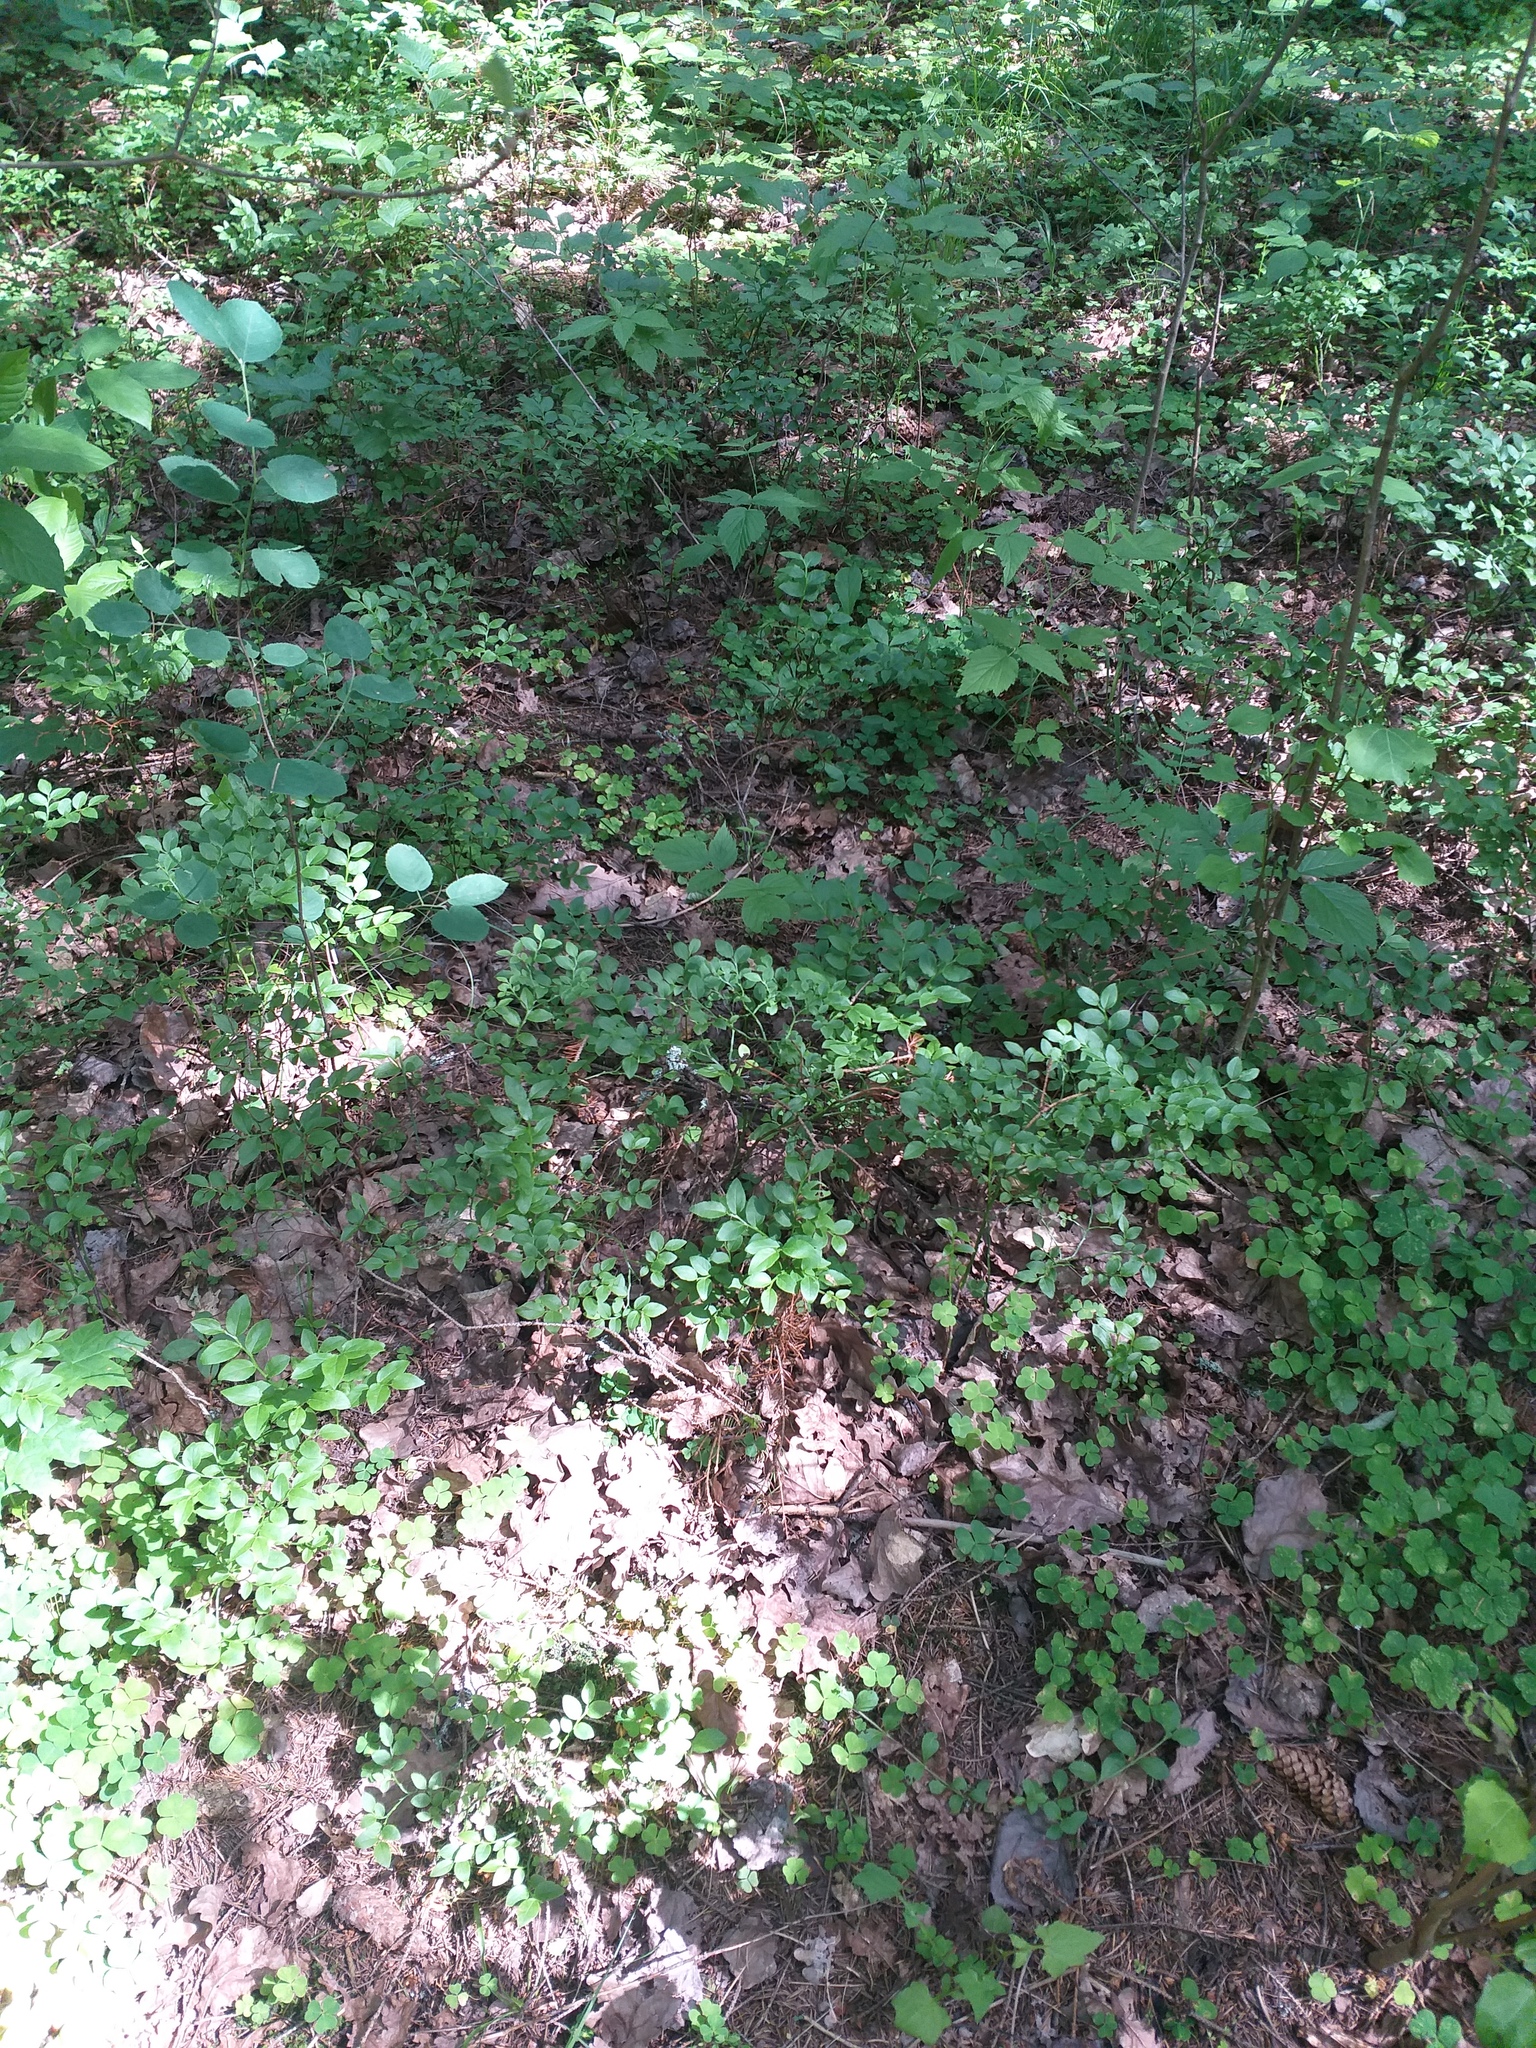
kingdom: Plantae
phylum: Tracheophyta
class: Magnoliopsida
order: Ericales
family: Ericaceae
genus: Vaccinium
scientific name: Vaccinium myrtillus
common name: Bilberry
